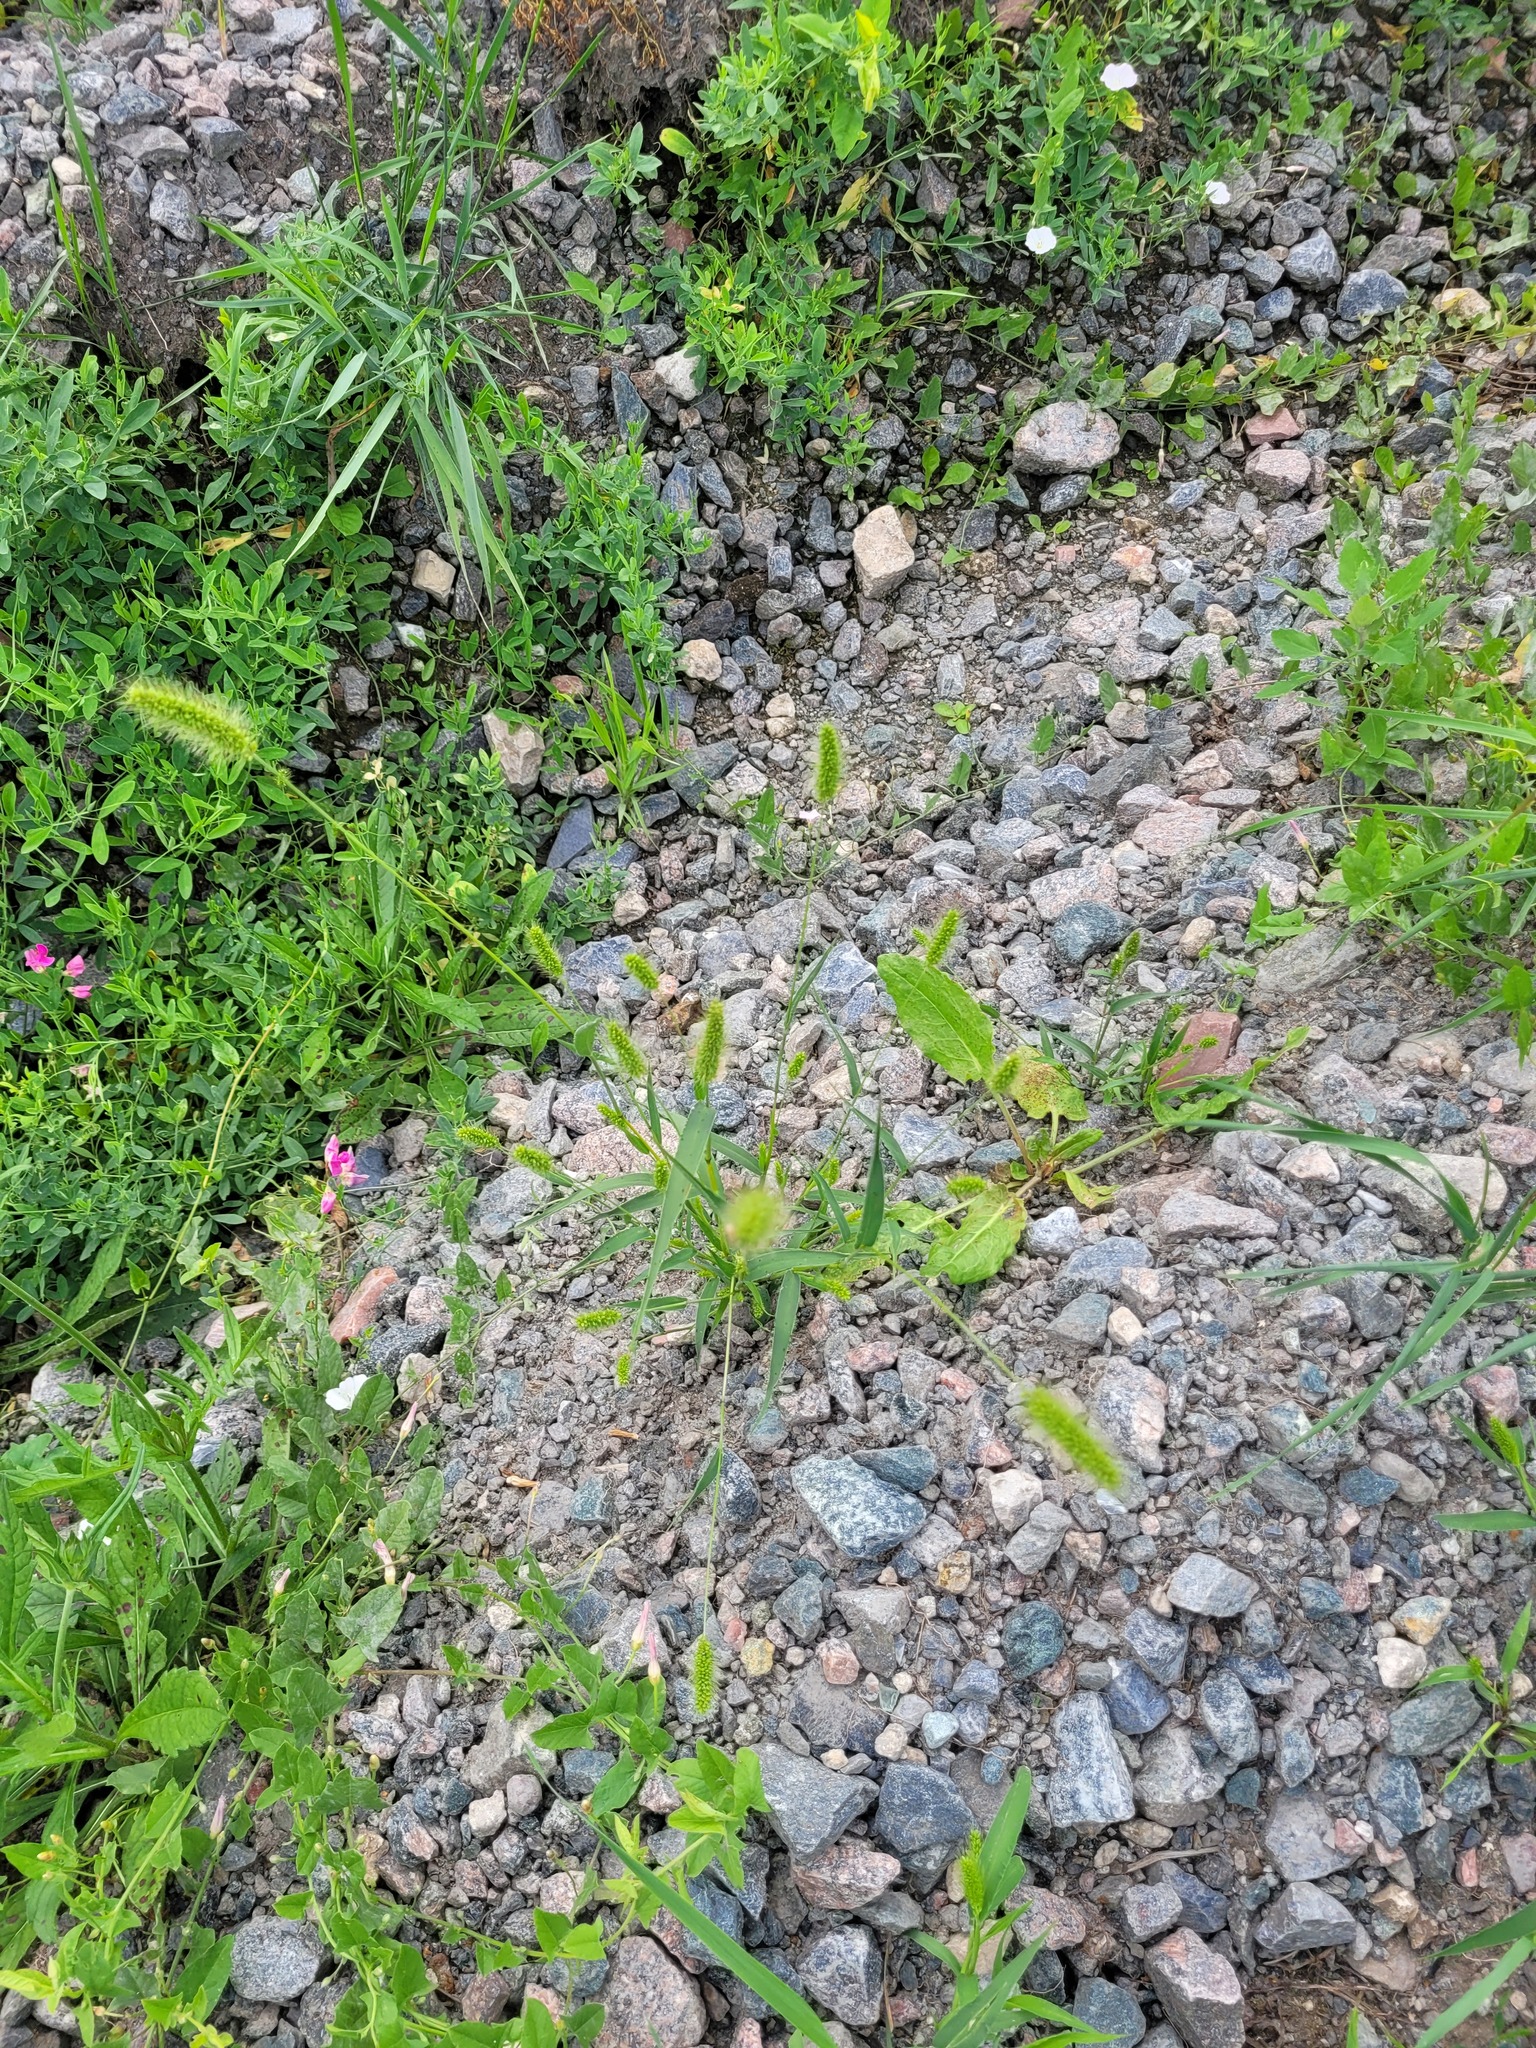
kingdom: Plantae
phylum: Tracheophyta
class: Liliopsida
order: Poales
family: Poaceae
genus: Setaria
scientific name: Setaria viridis
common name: Green bristlegrass
